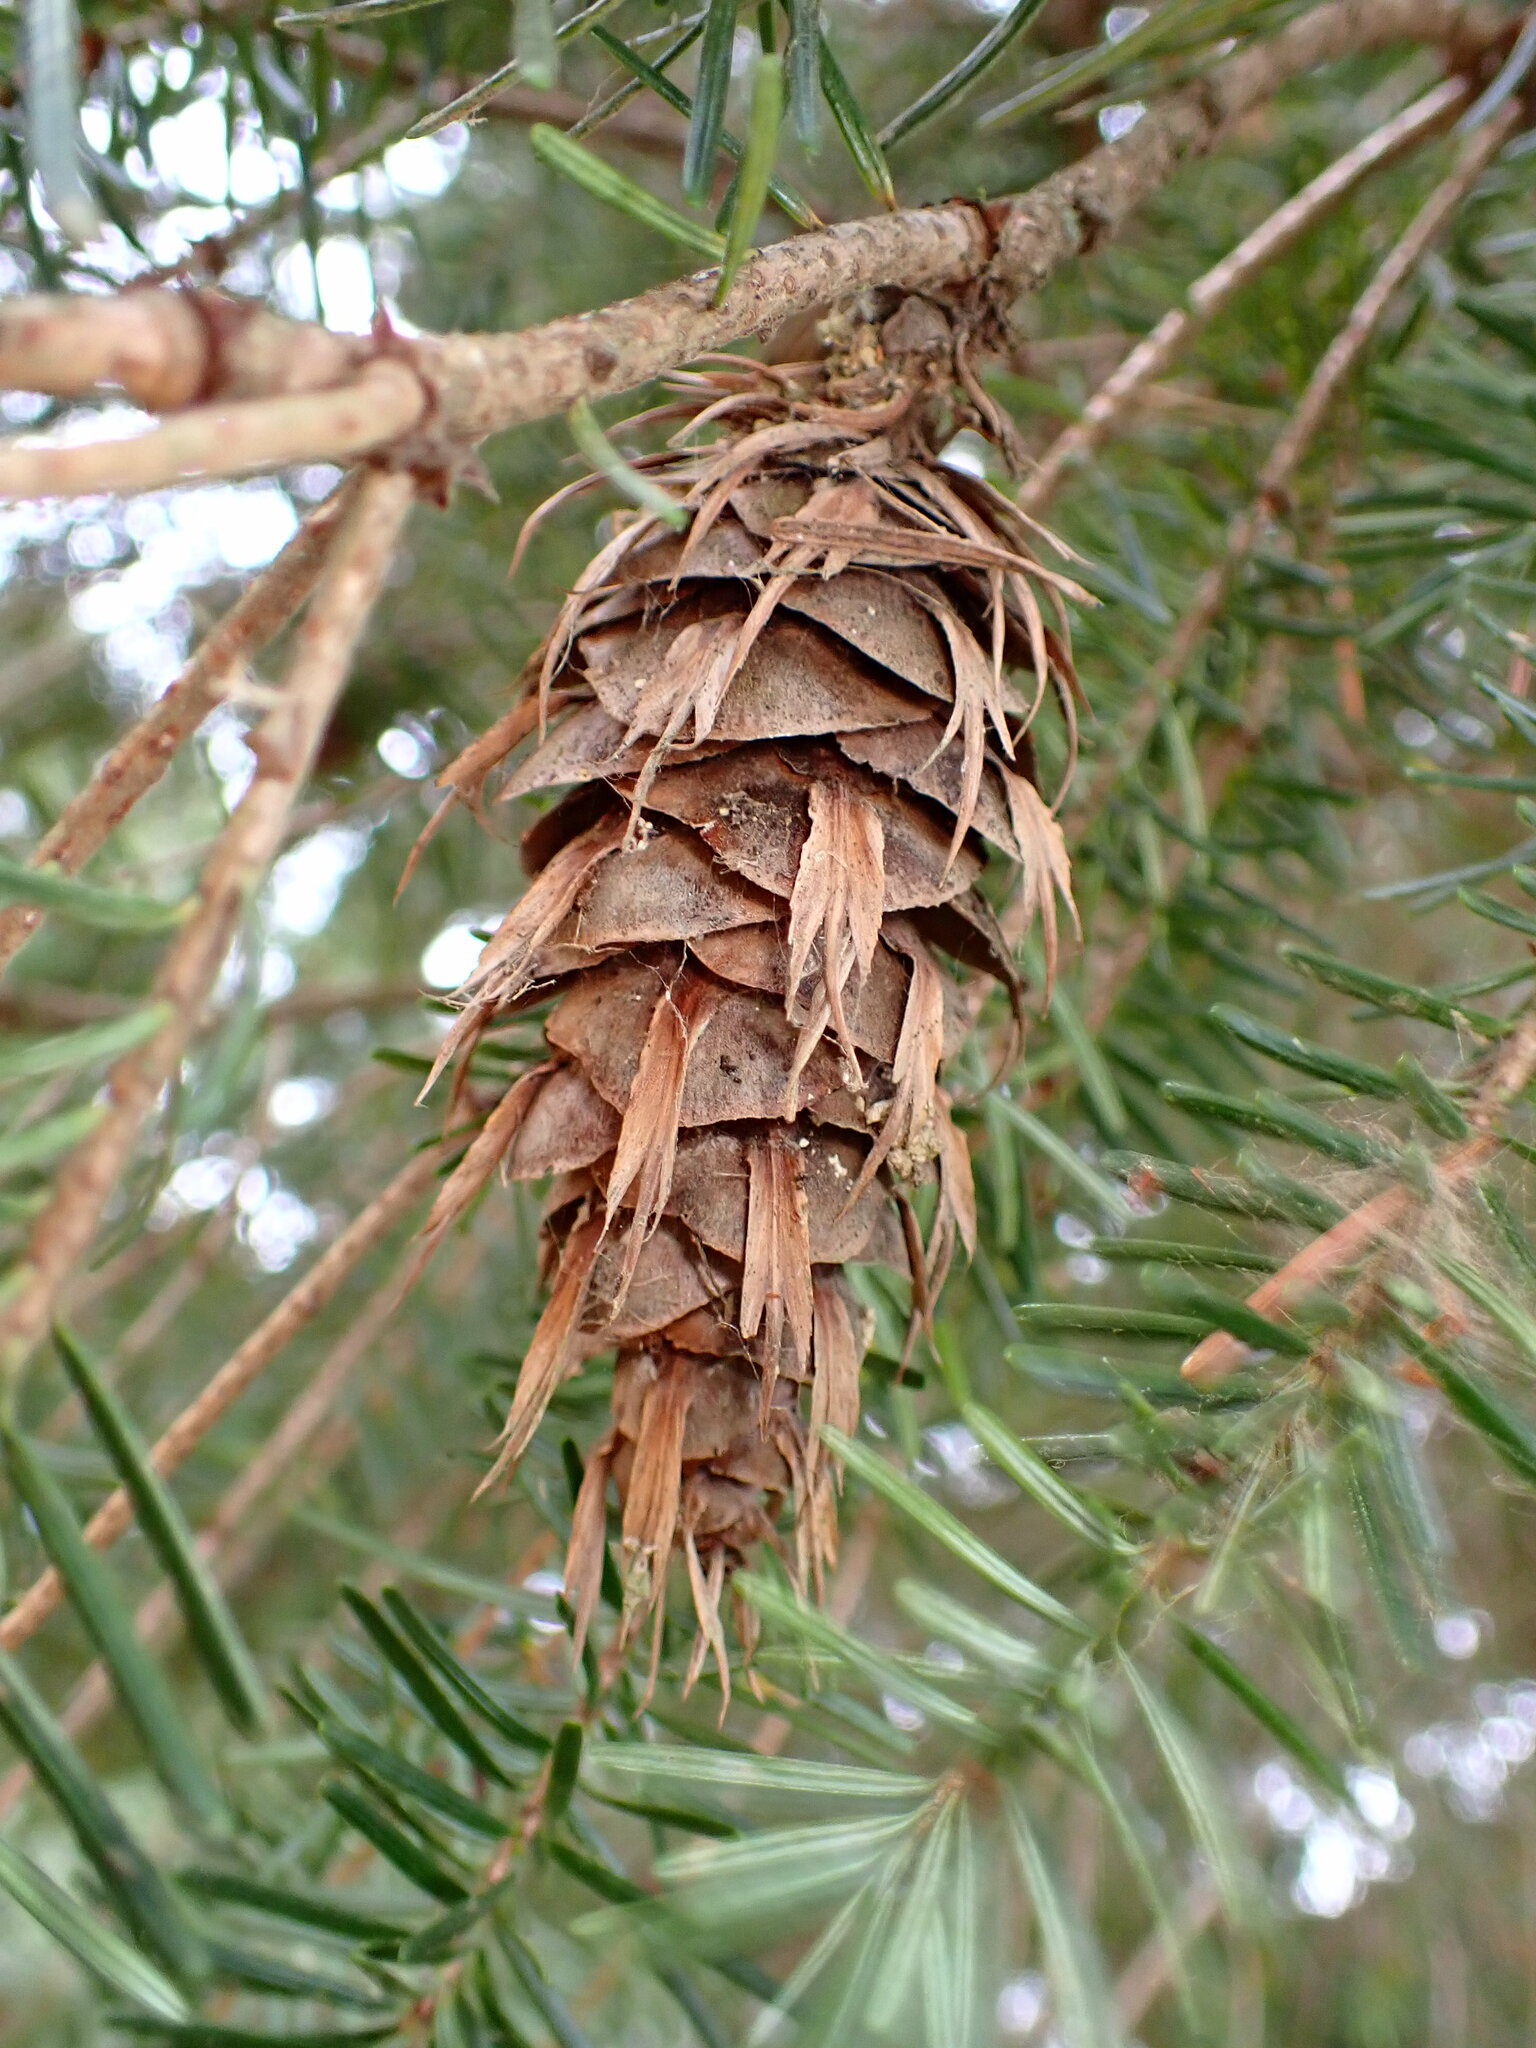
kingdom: Plantae
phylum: Tracheophyta
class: Pinopsida
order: Pinales
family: Pinaceae
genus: Pseudotsuga
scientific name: Pseudotsuga menziesii
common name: Douglas fir
